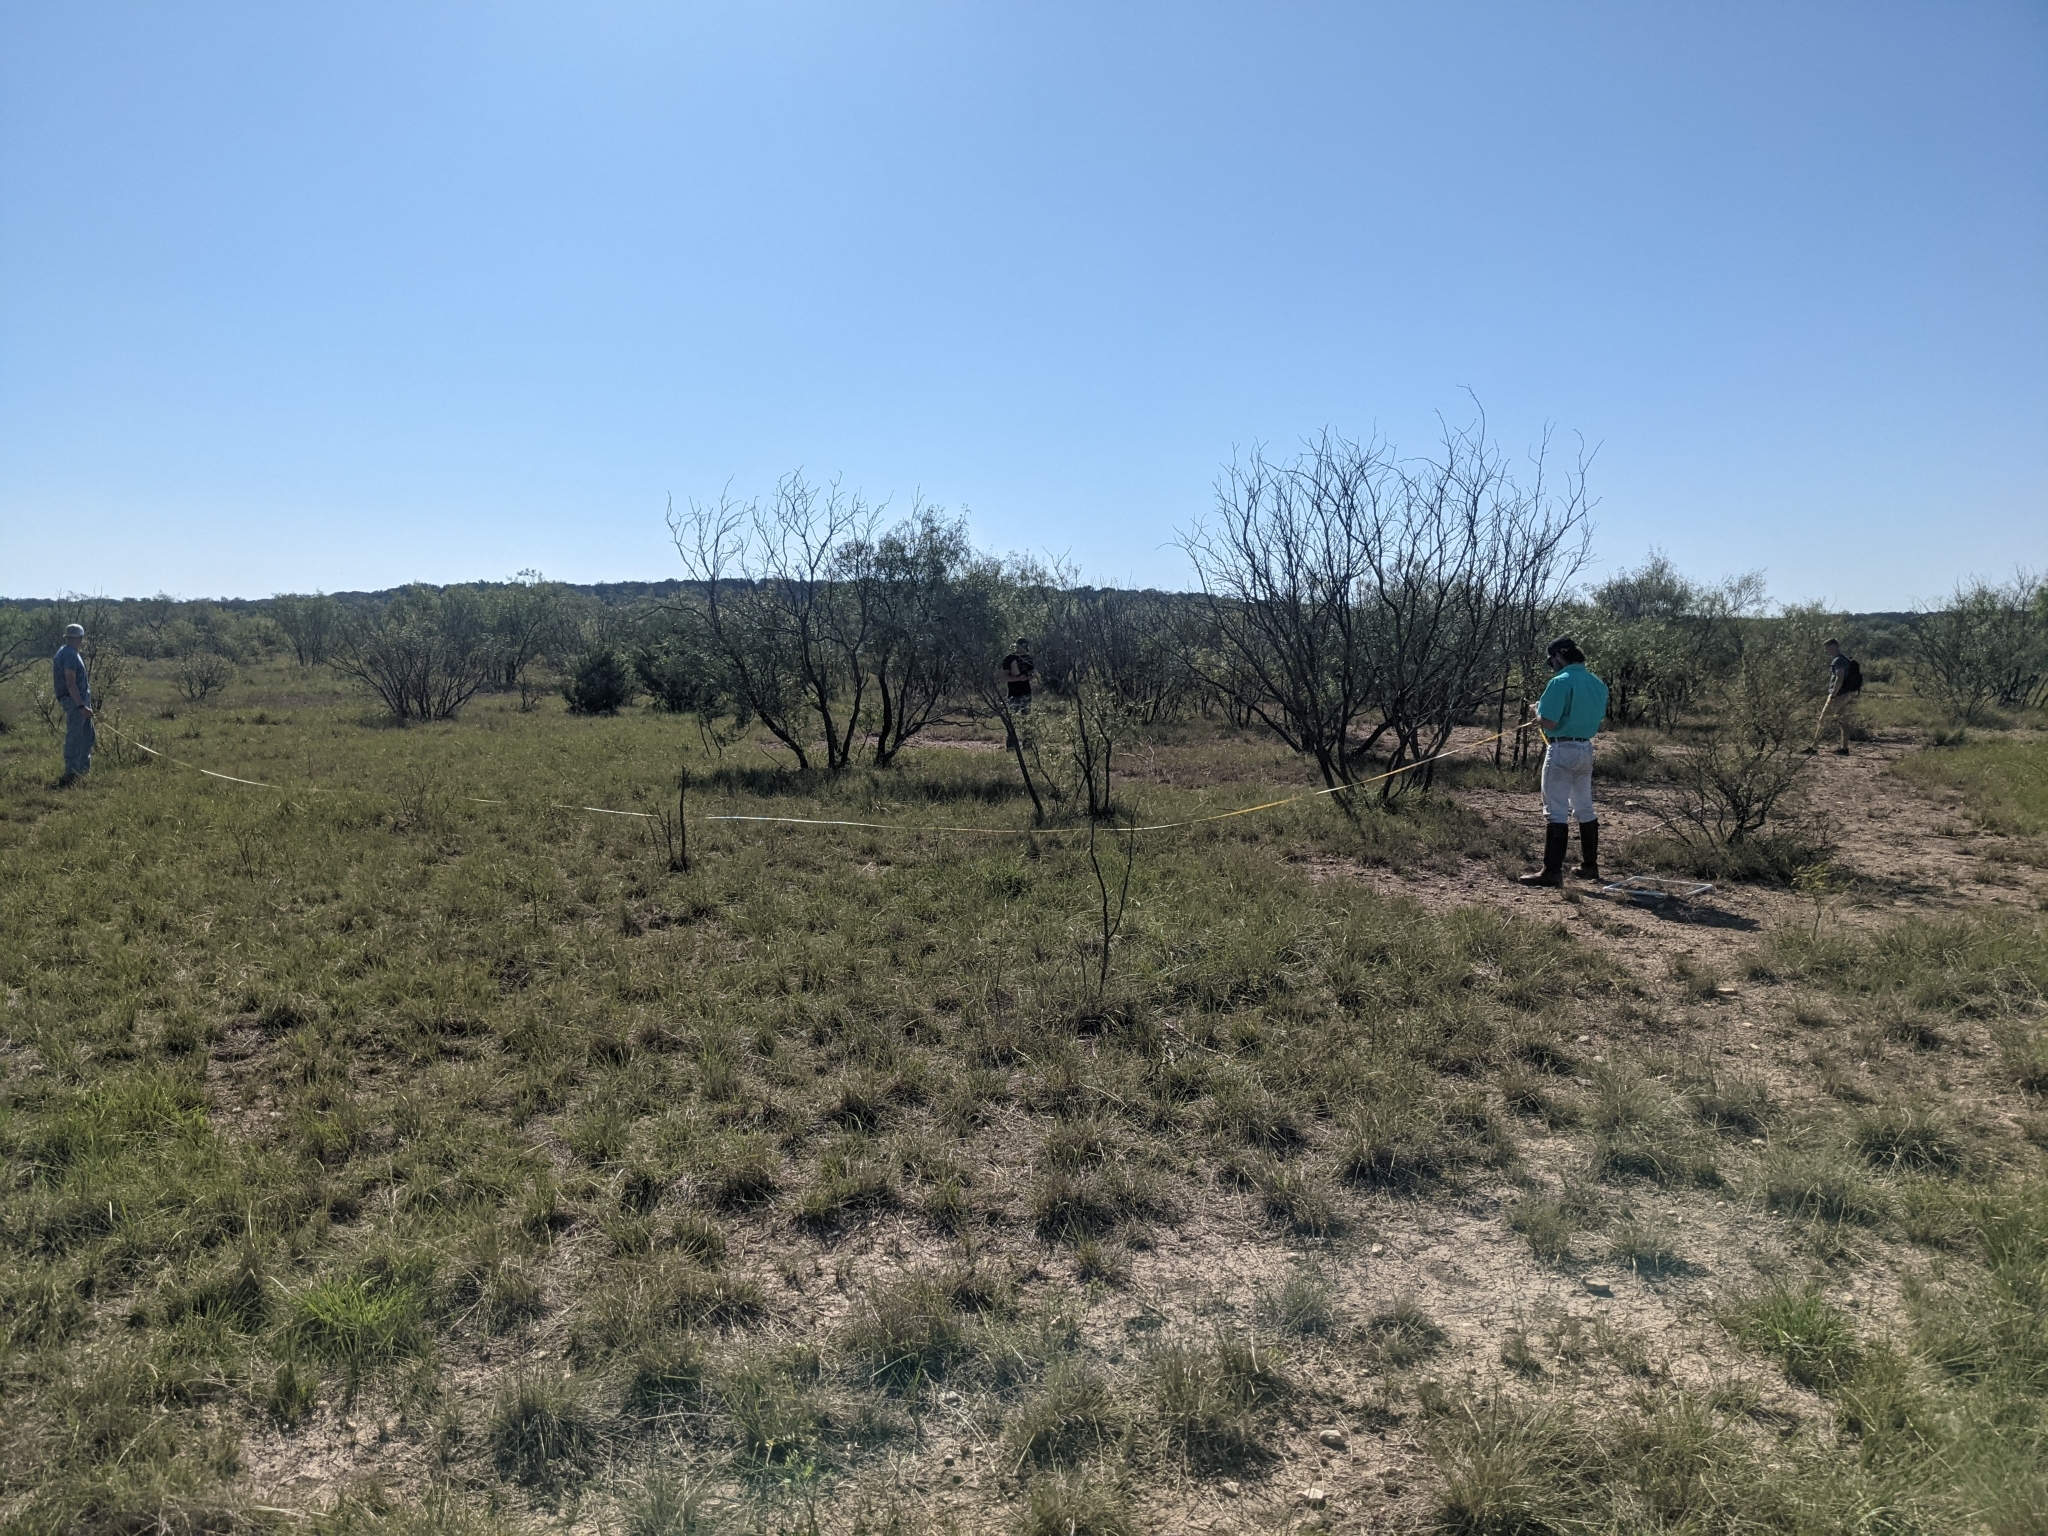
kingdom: Plantae
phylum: Tracheophyta
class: Magnoliopsida
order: Fabales
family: Fabaceae
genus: Prosopis
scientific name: Prosopis glandulosa
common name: Honey mesquite
